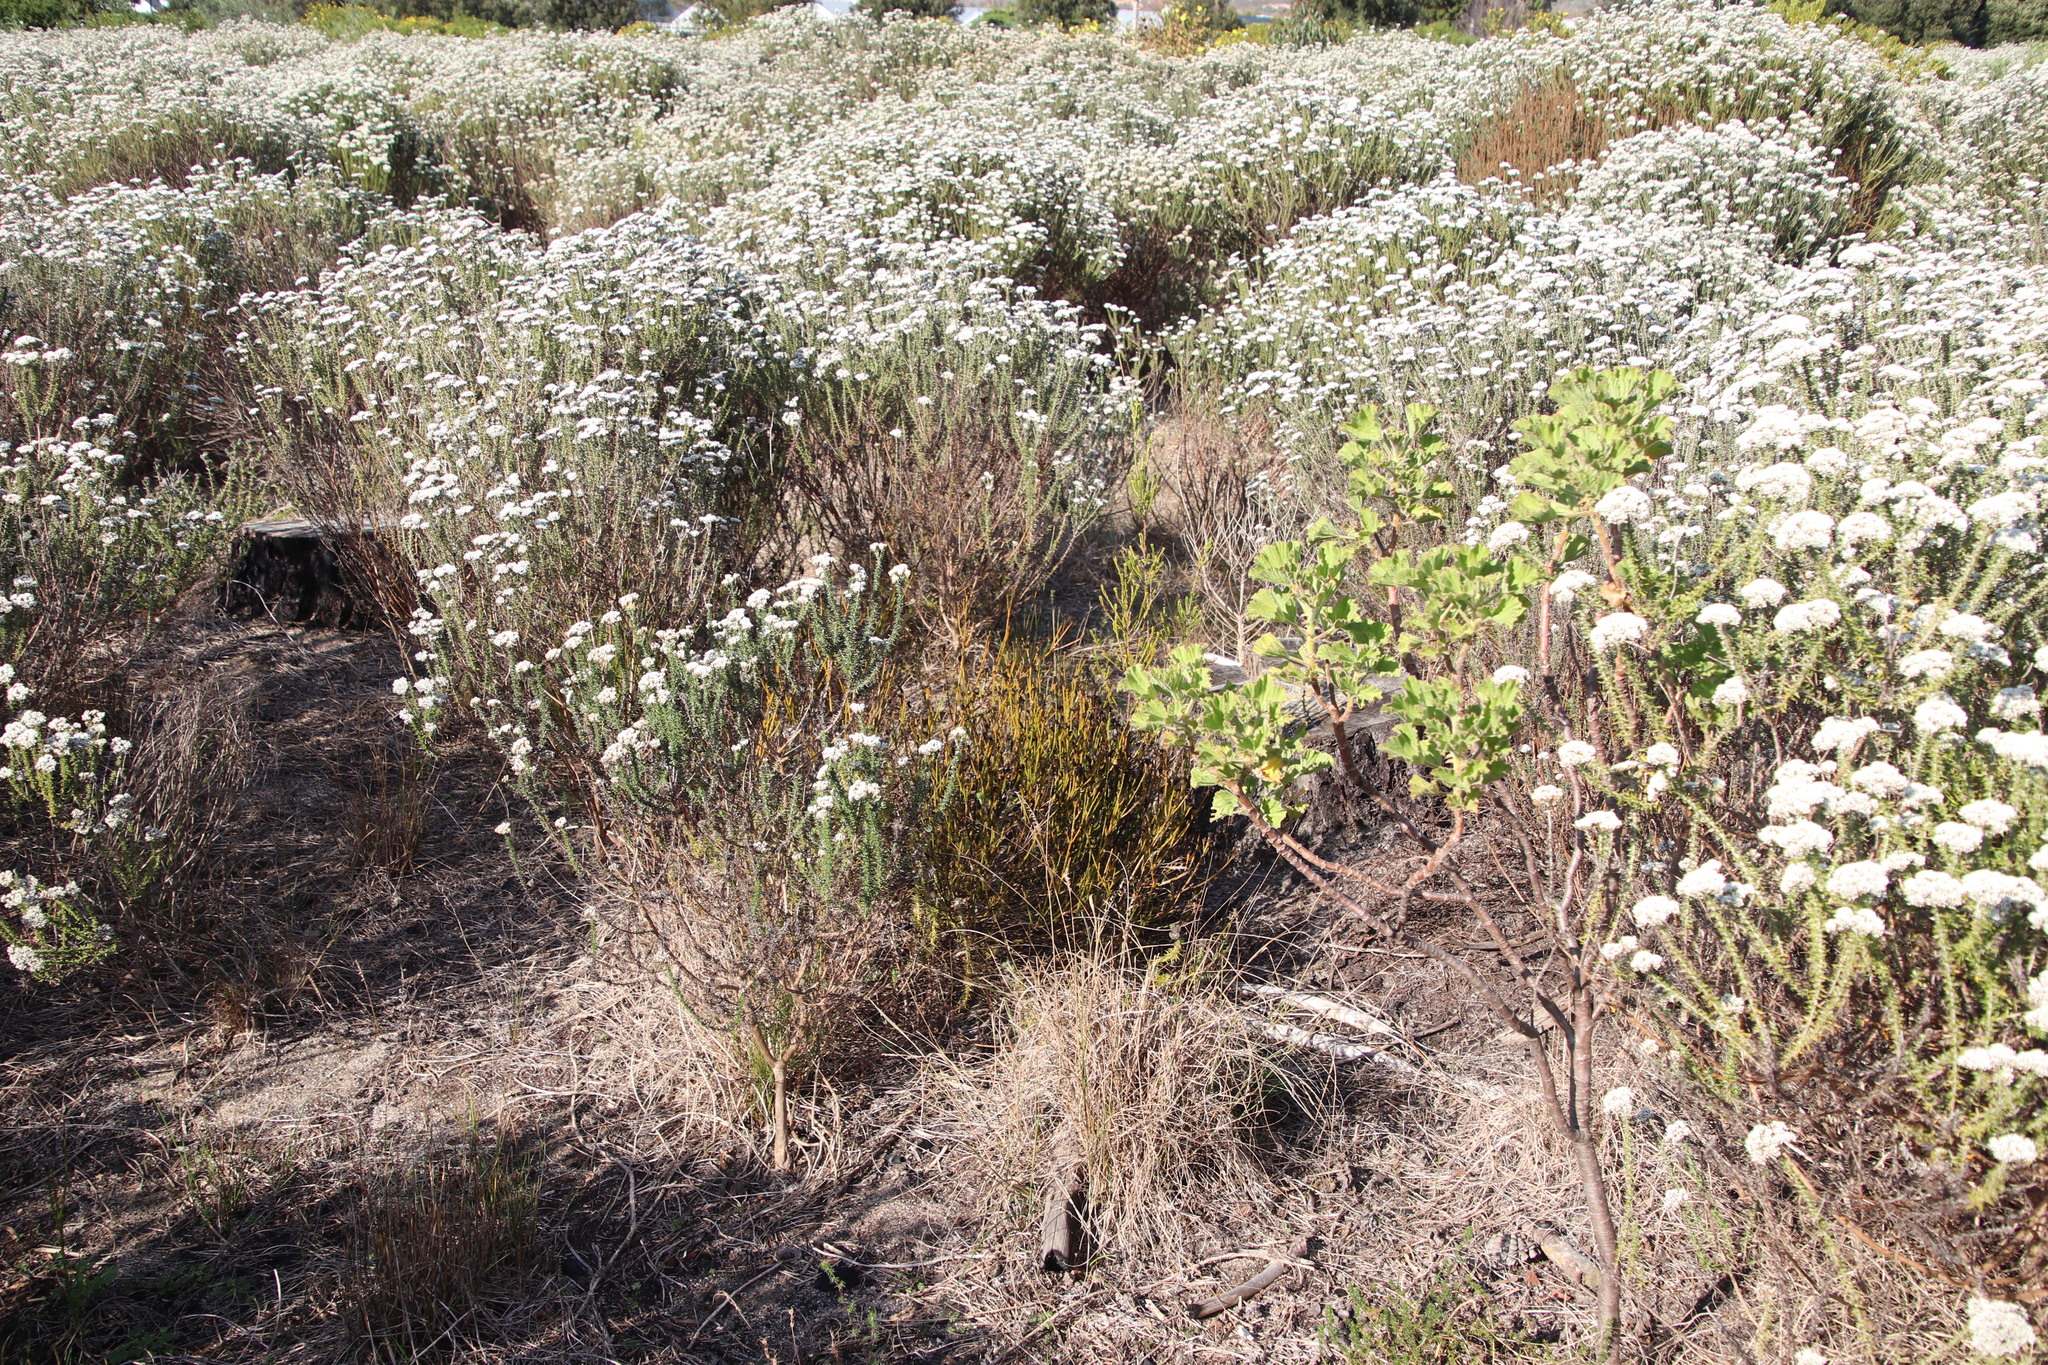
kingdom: Plantae
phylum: Tracheophyta
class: Magnoliopsida
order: Santalales
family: Thesiaceae
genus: Thesium
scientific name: Thesium aggregatum
